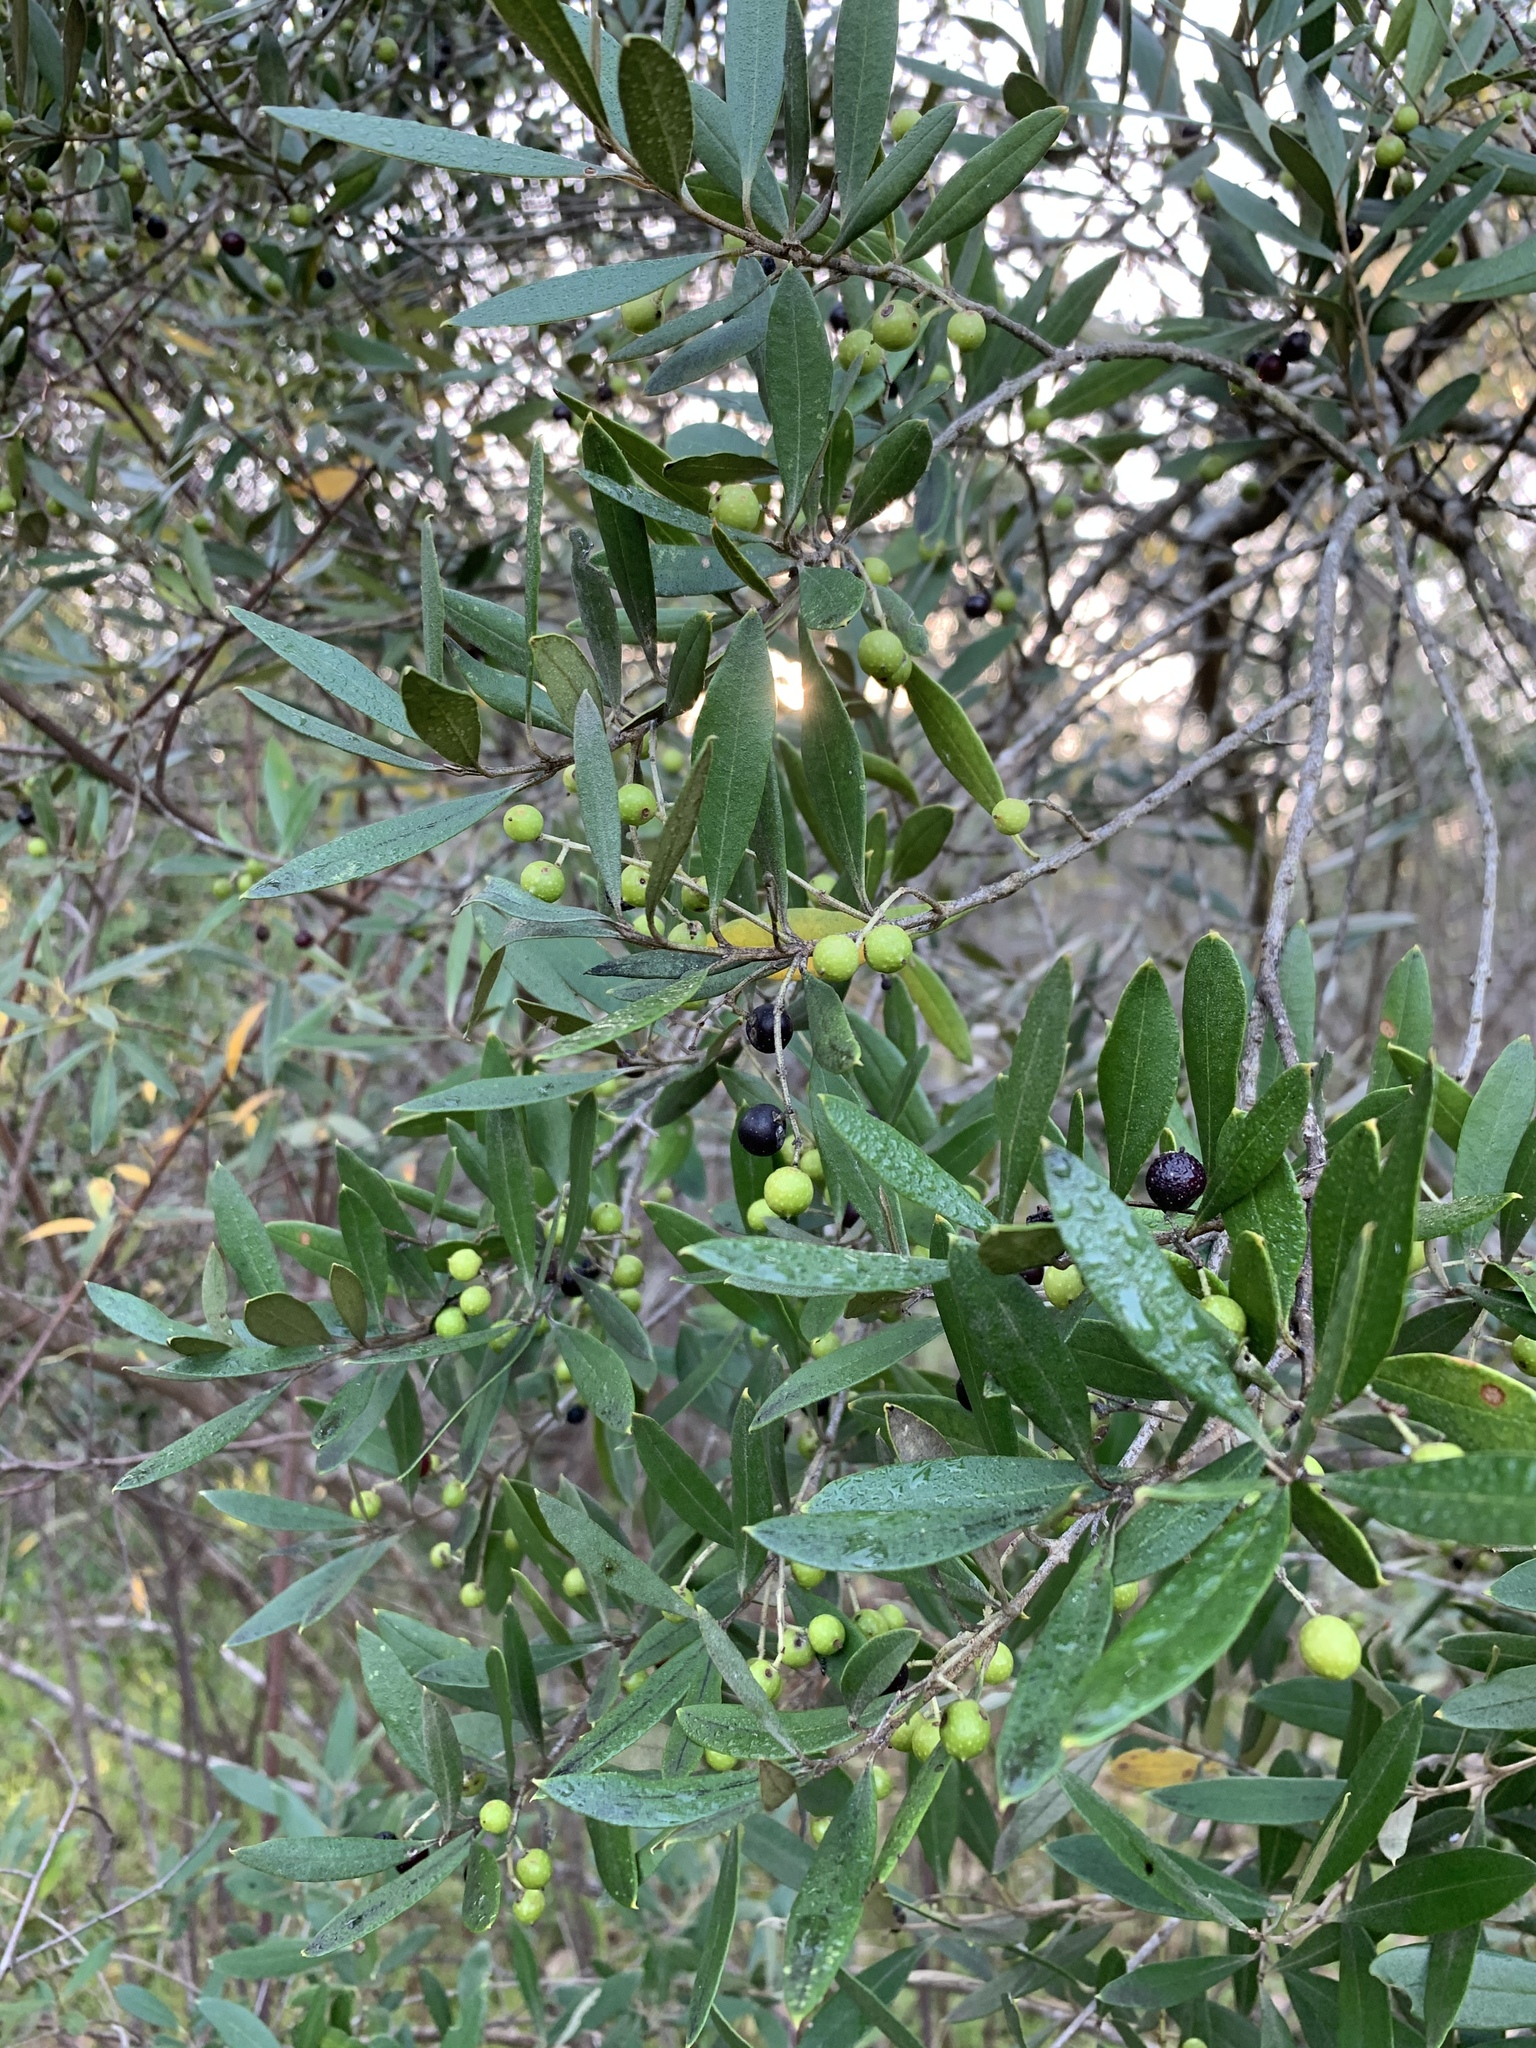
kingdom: Plantae
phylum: Tracheophyta
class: Magnoliopsida
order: Lamiales
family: Oleaceae
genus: Olea
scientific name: Olea europaea
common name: Olive
